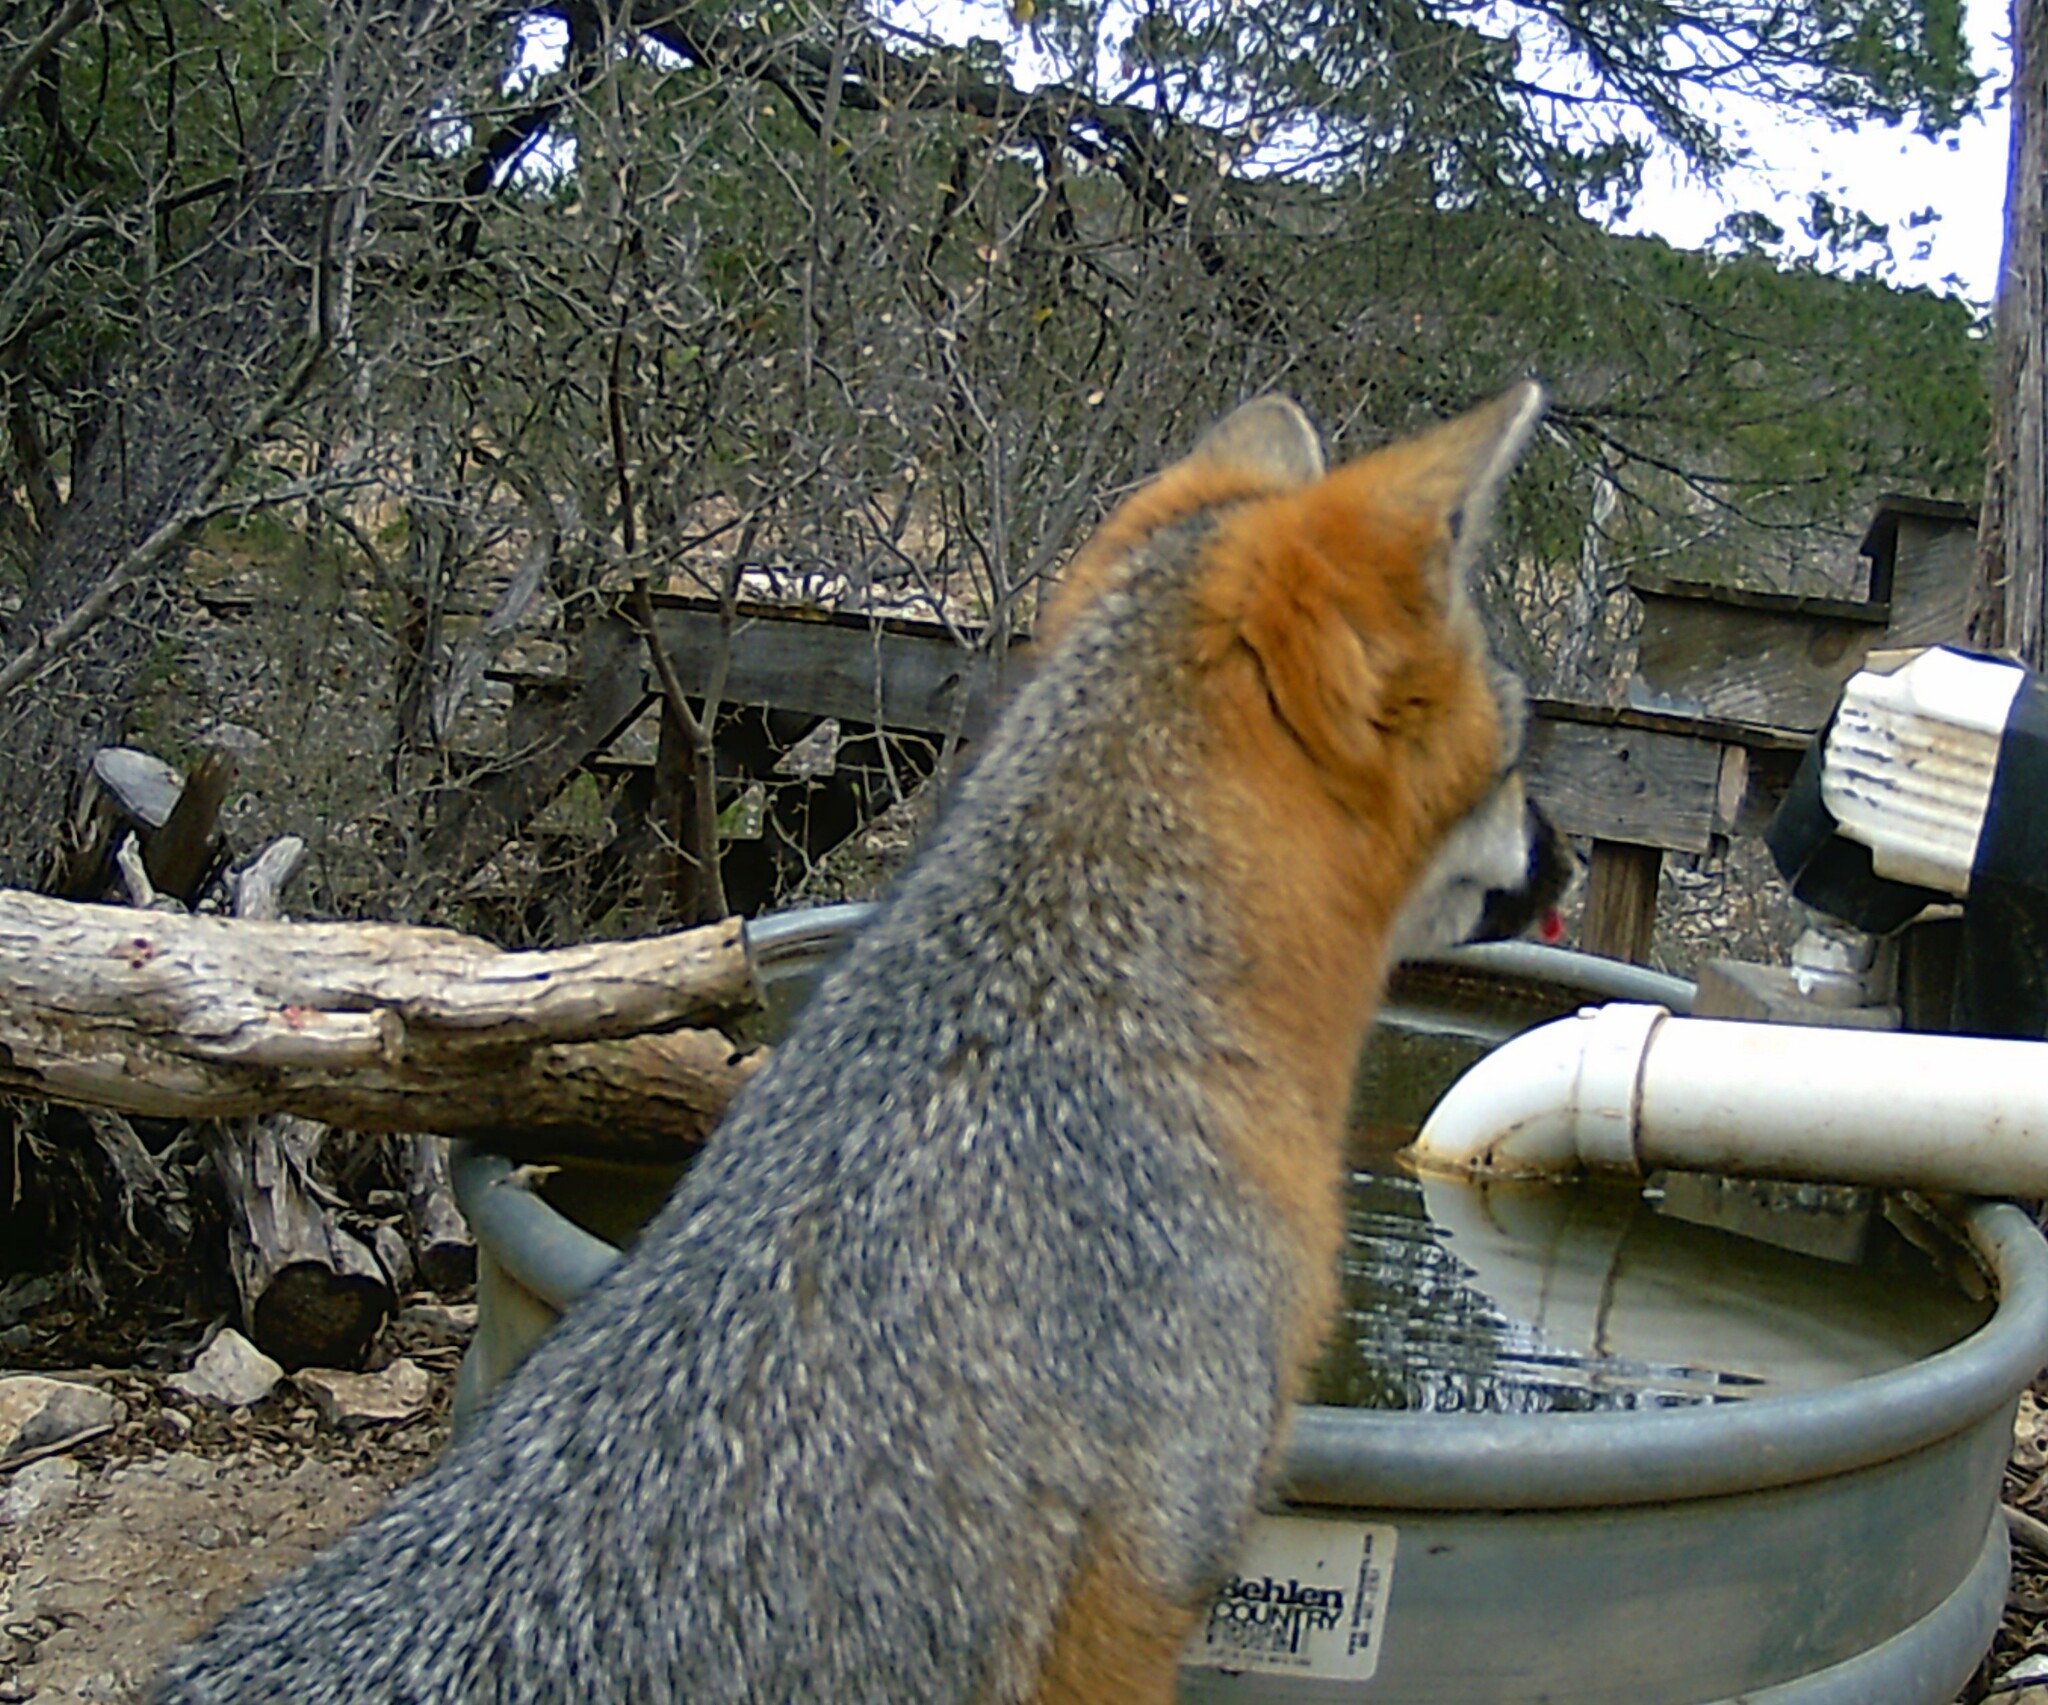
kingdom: Animalia
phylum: Chordata
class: Mammalia
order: Carnivora
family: Canidae
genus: Urocyon
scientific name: Urocyon cinereoargenteus
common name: Gray fox
